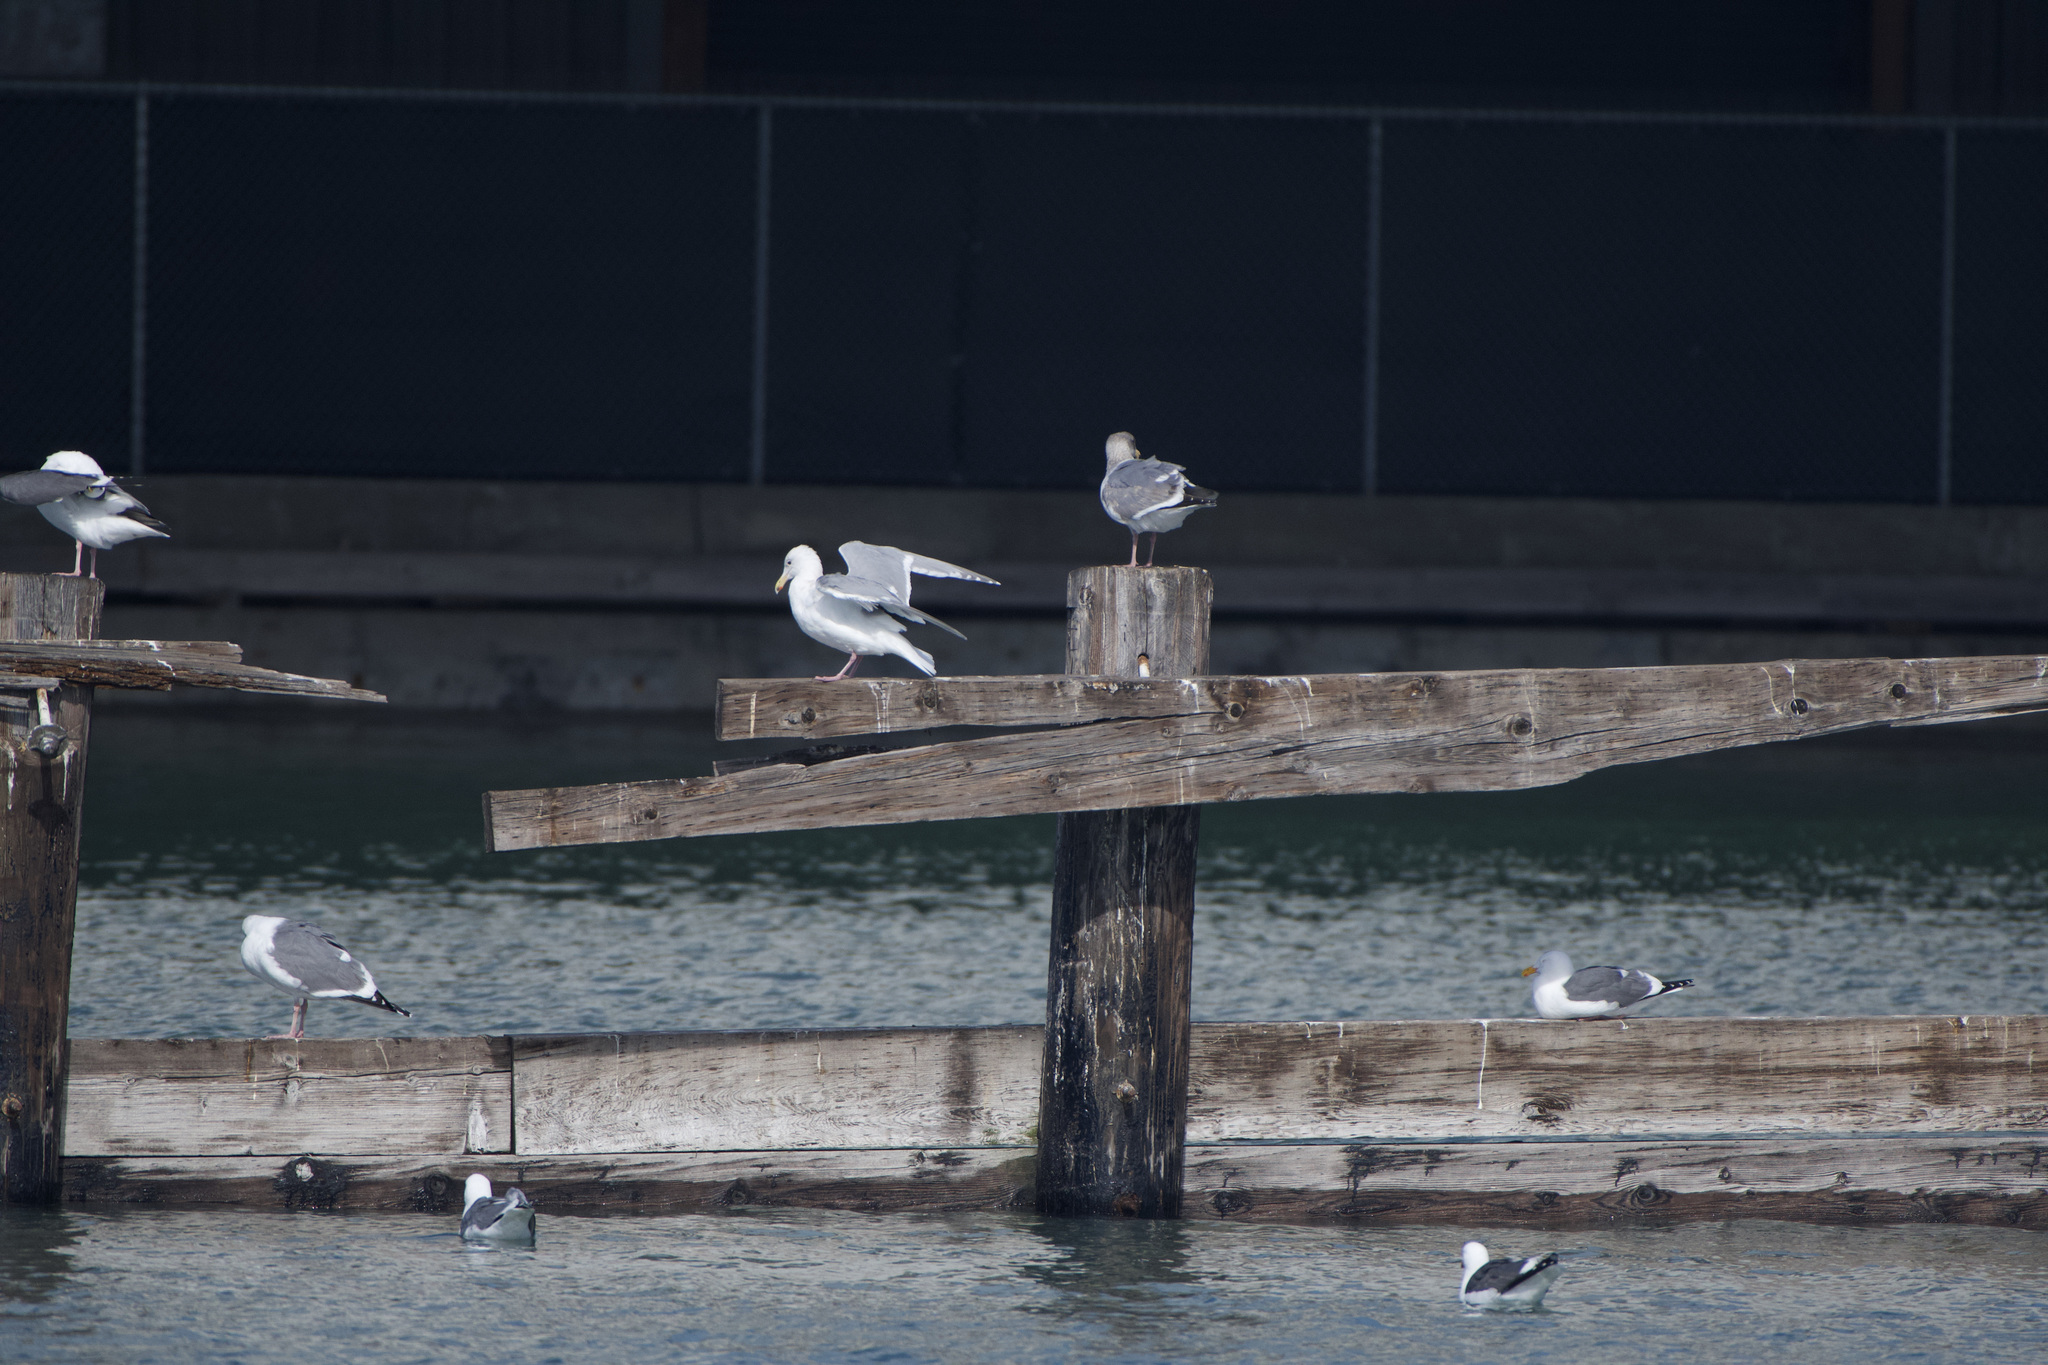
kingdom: Animalia
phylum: Chordata
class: Aves
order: Charadriiformes
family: Laridae
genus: Larus
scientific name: Larus
